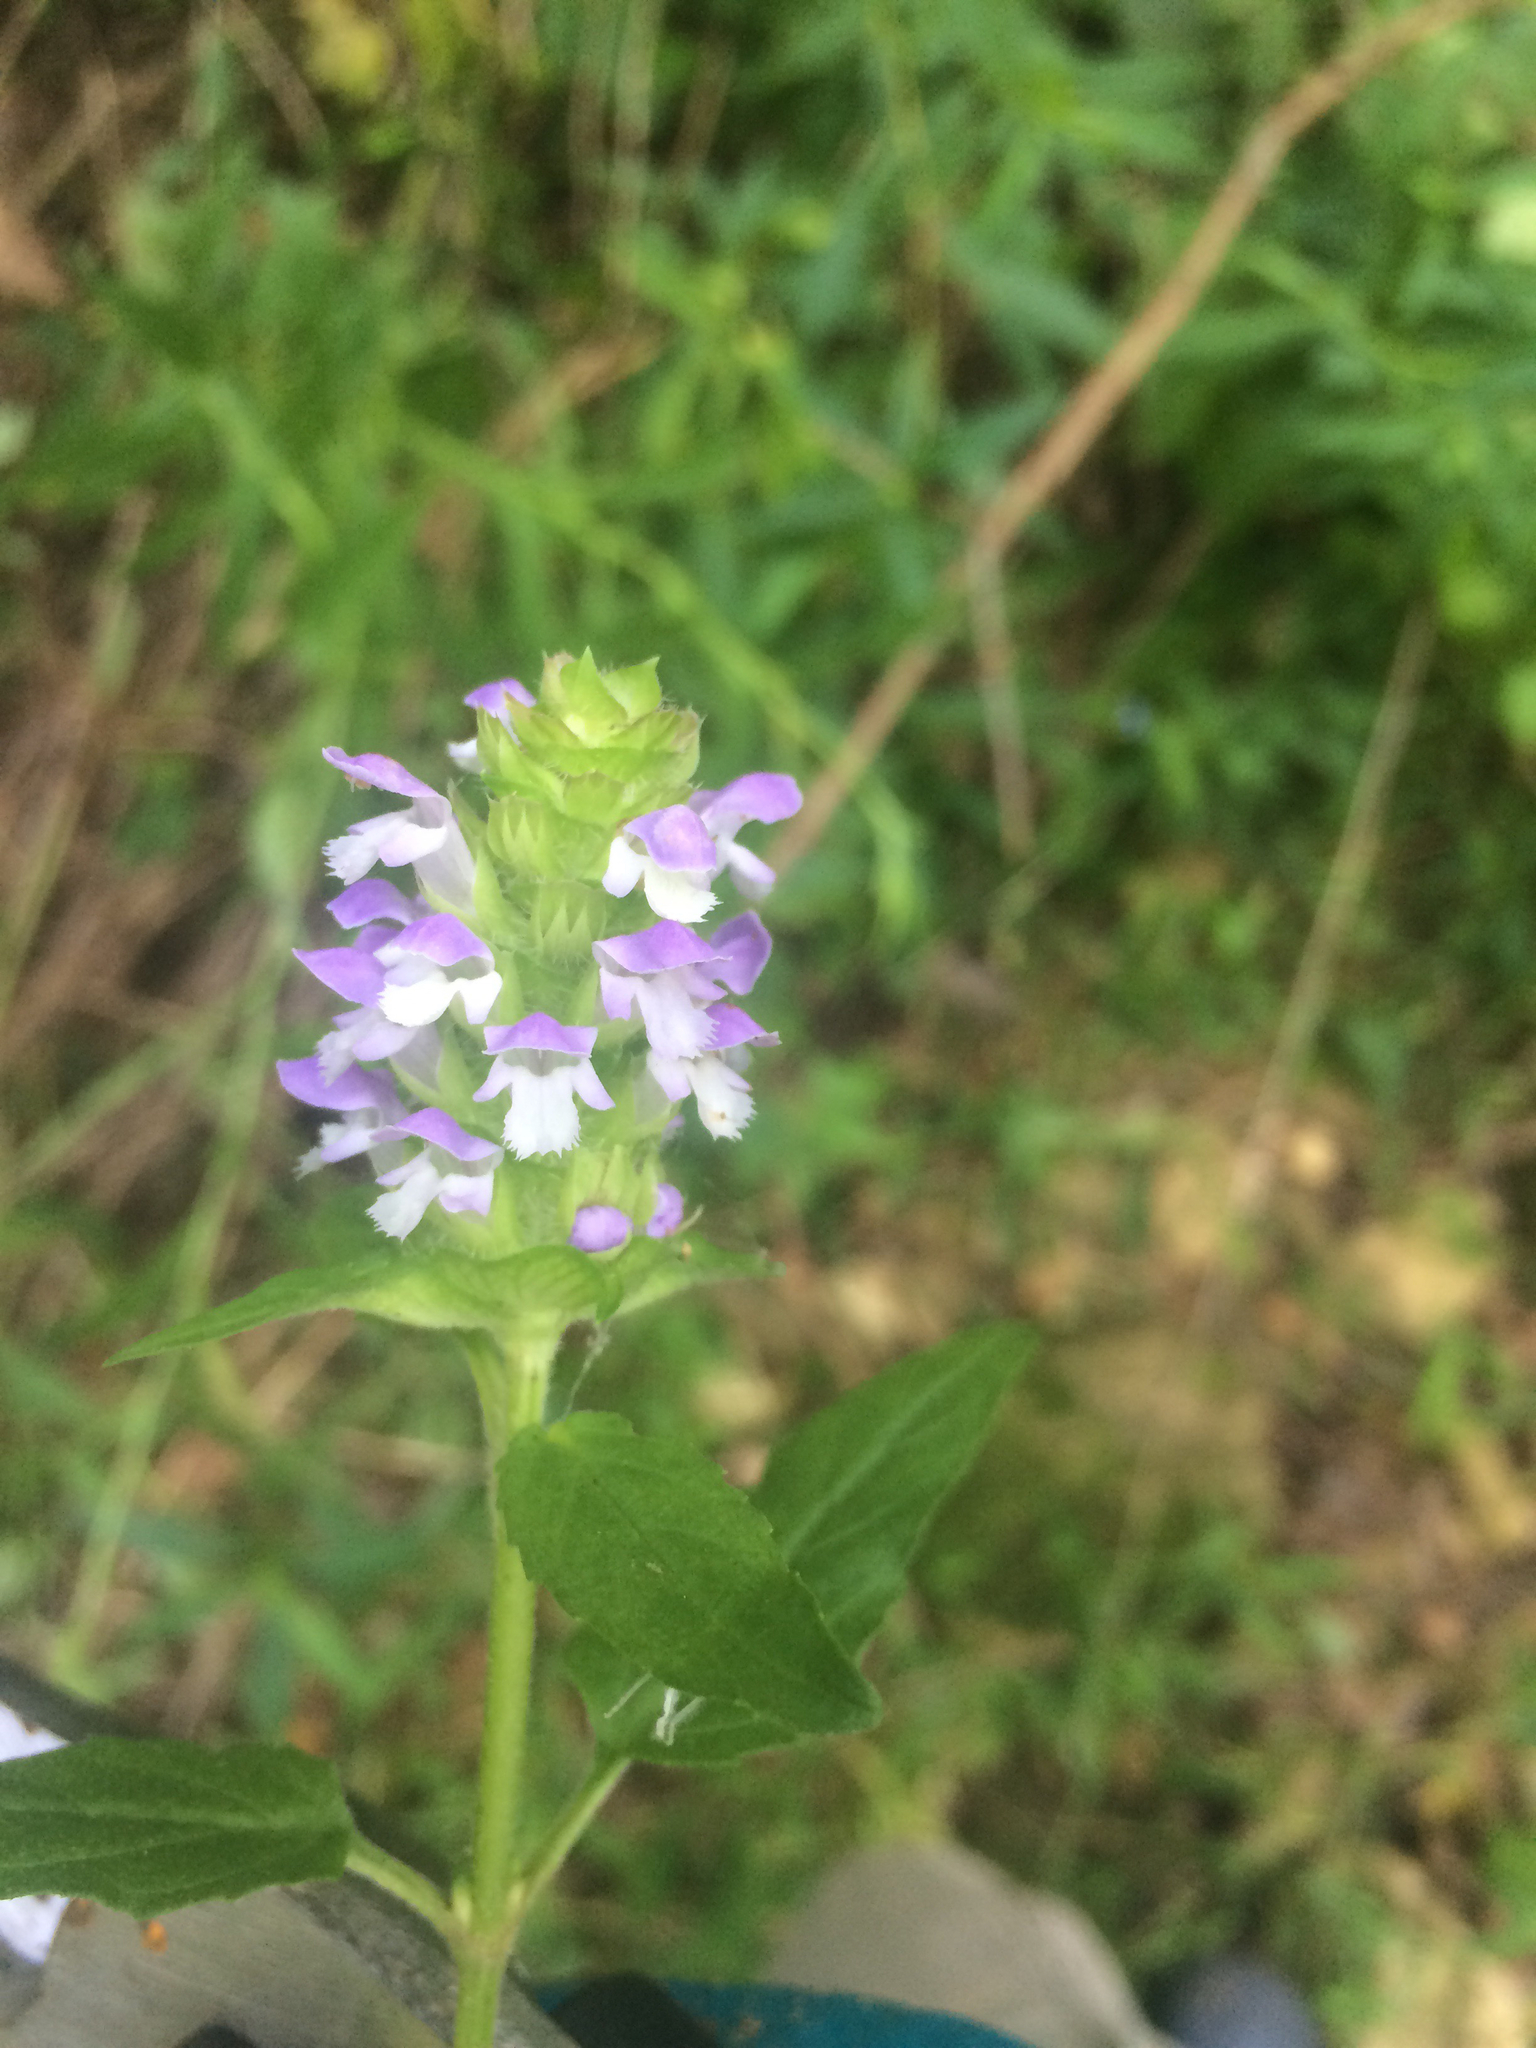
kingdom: Plantae
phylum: Tracheophyta
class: Magnoliopsida
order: Lamiales
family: Lamiaceae
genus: Prunella
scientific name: Prunella vulgaris
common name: Heal-all
